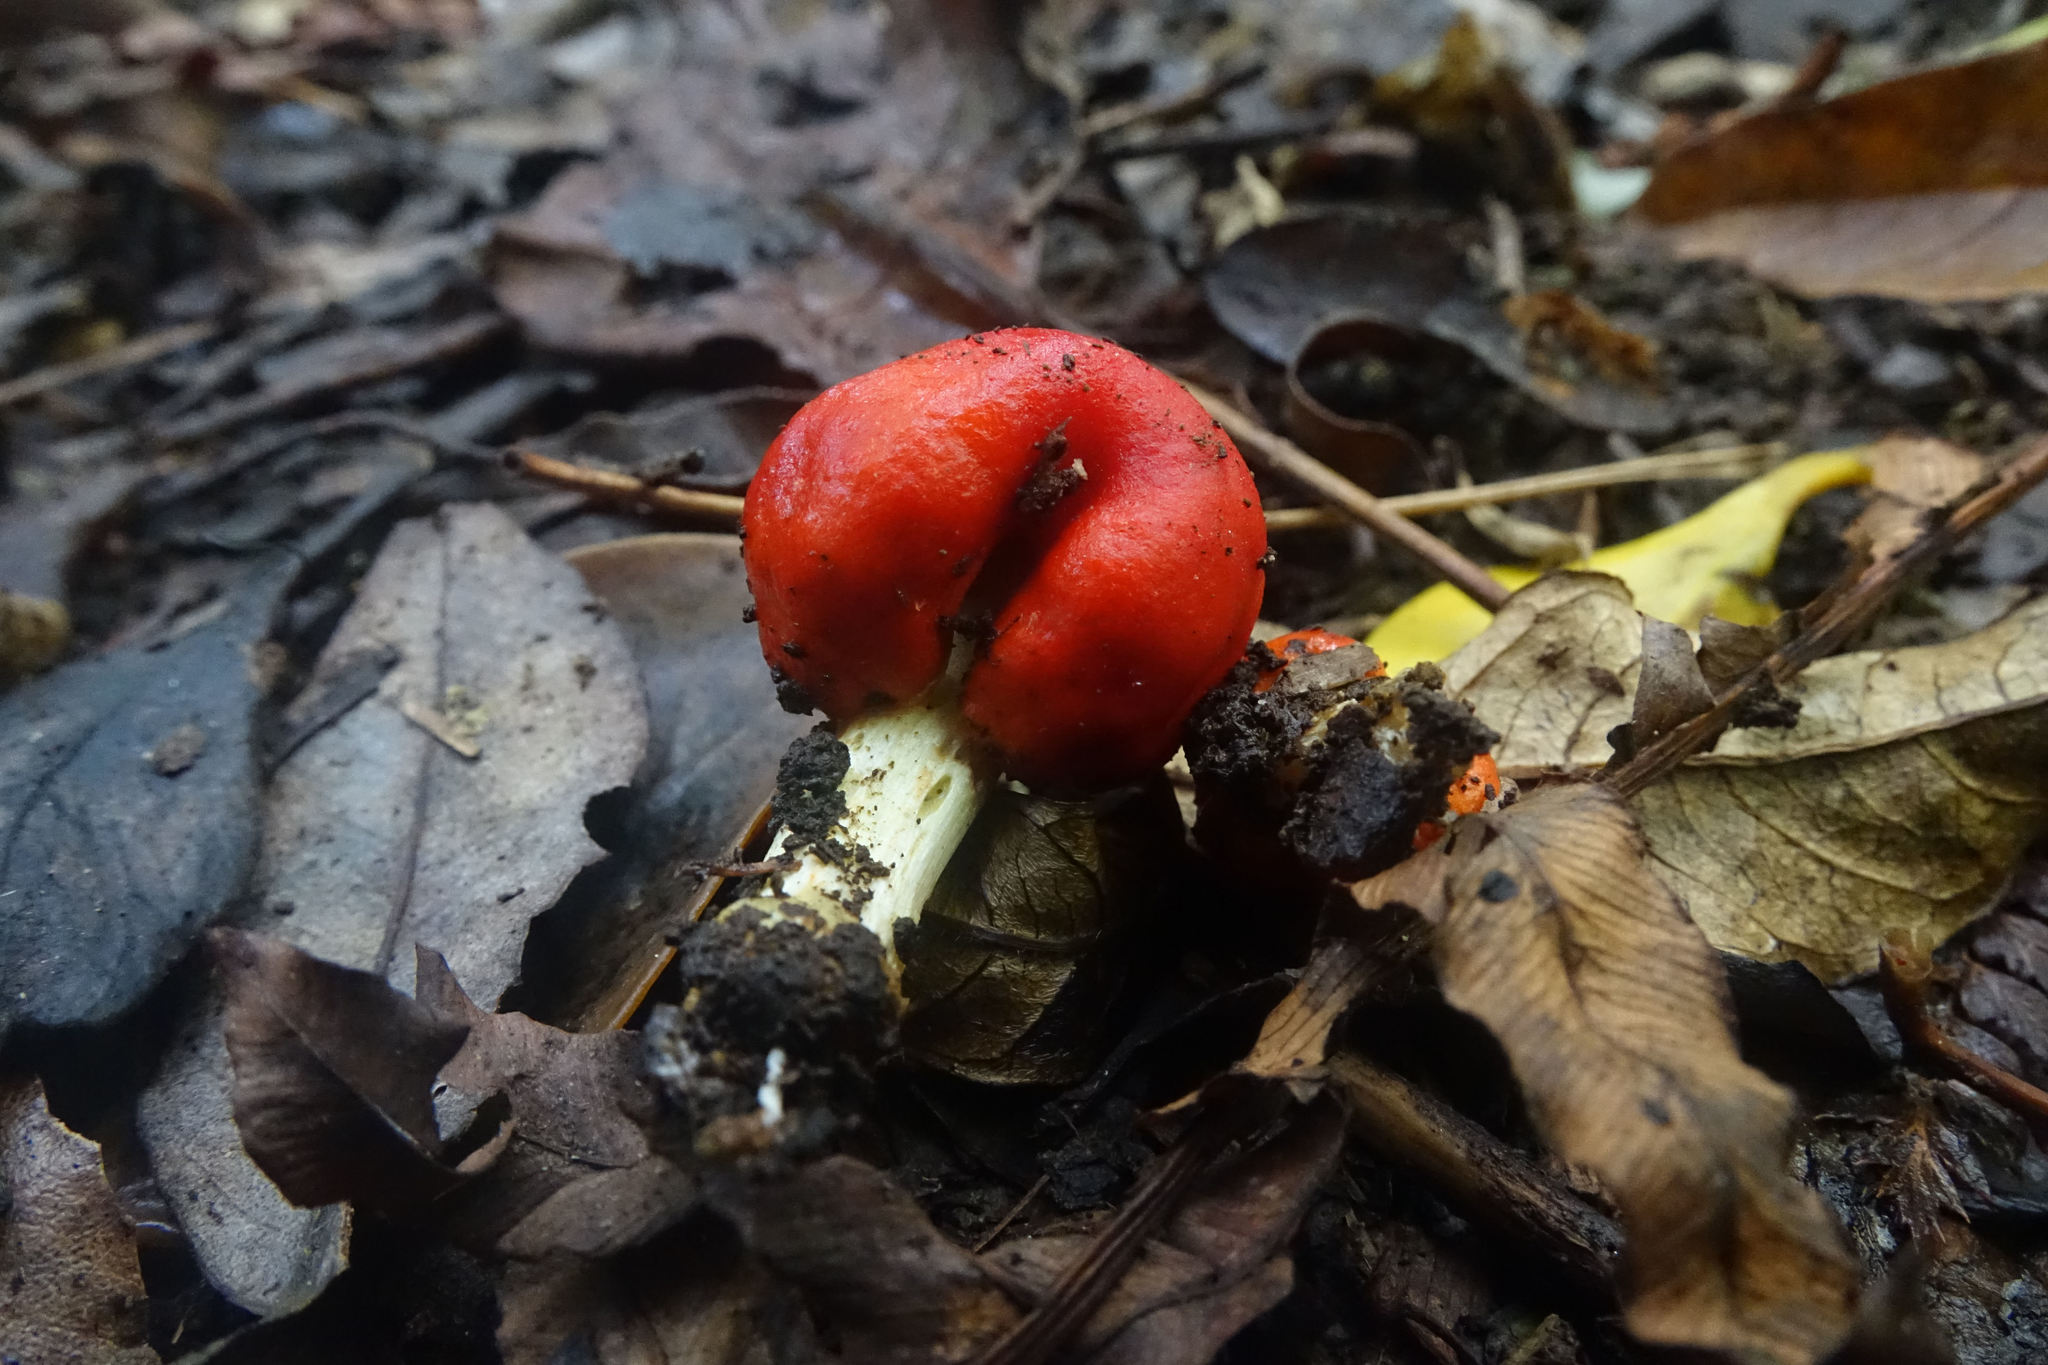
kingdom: Fungi
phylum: Basidiomycota
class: Agaricomycetes
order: Agaricales
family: Strophariaceae
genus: Leratiomyces
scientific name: Leratiomyces erythrocephalus
